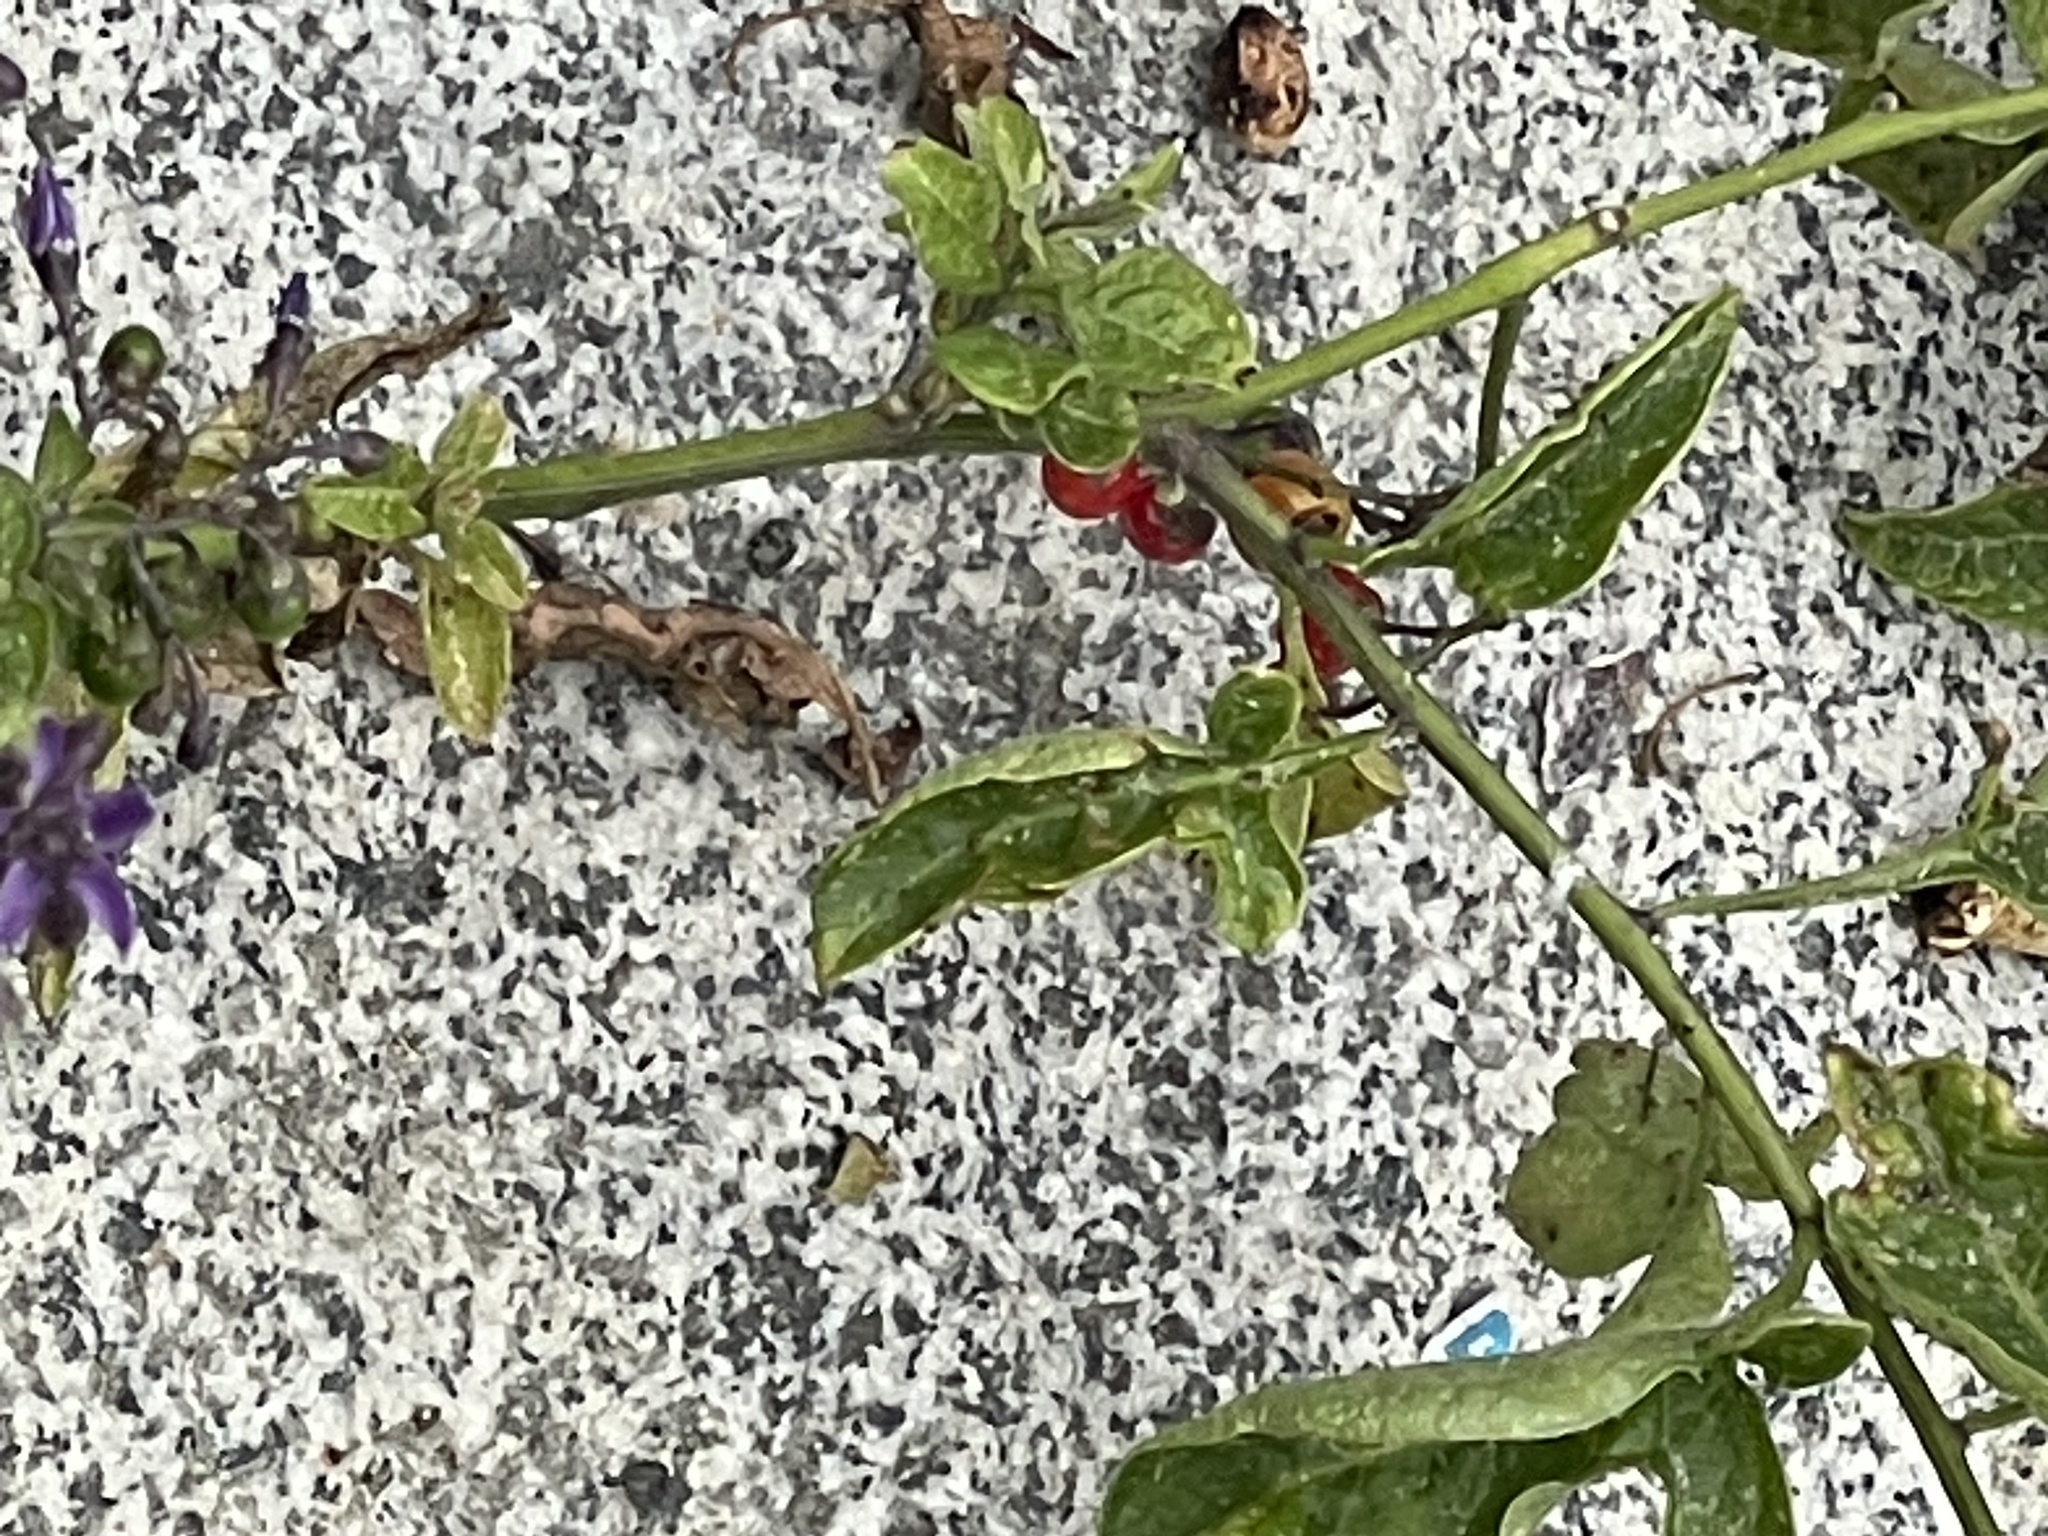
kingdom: Plantae
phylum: Tracheophyta
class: Magnoliopsida
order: Solanales
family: Solanaceae
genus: Solanum
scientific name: Solanum dulcamara
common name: Climbing nightshade
